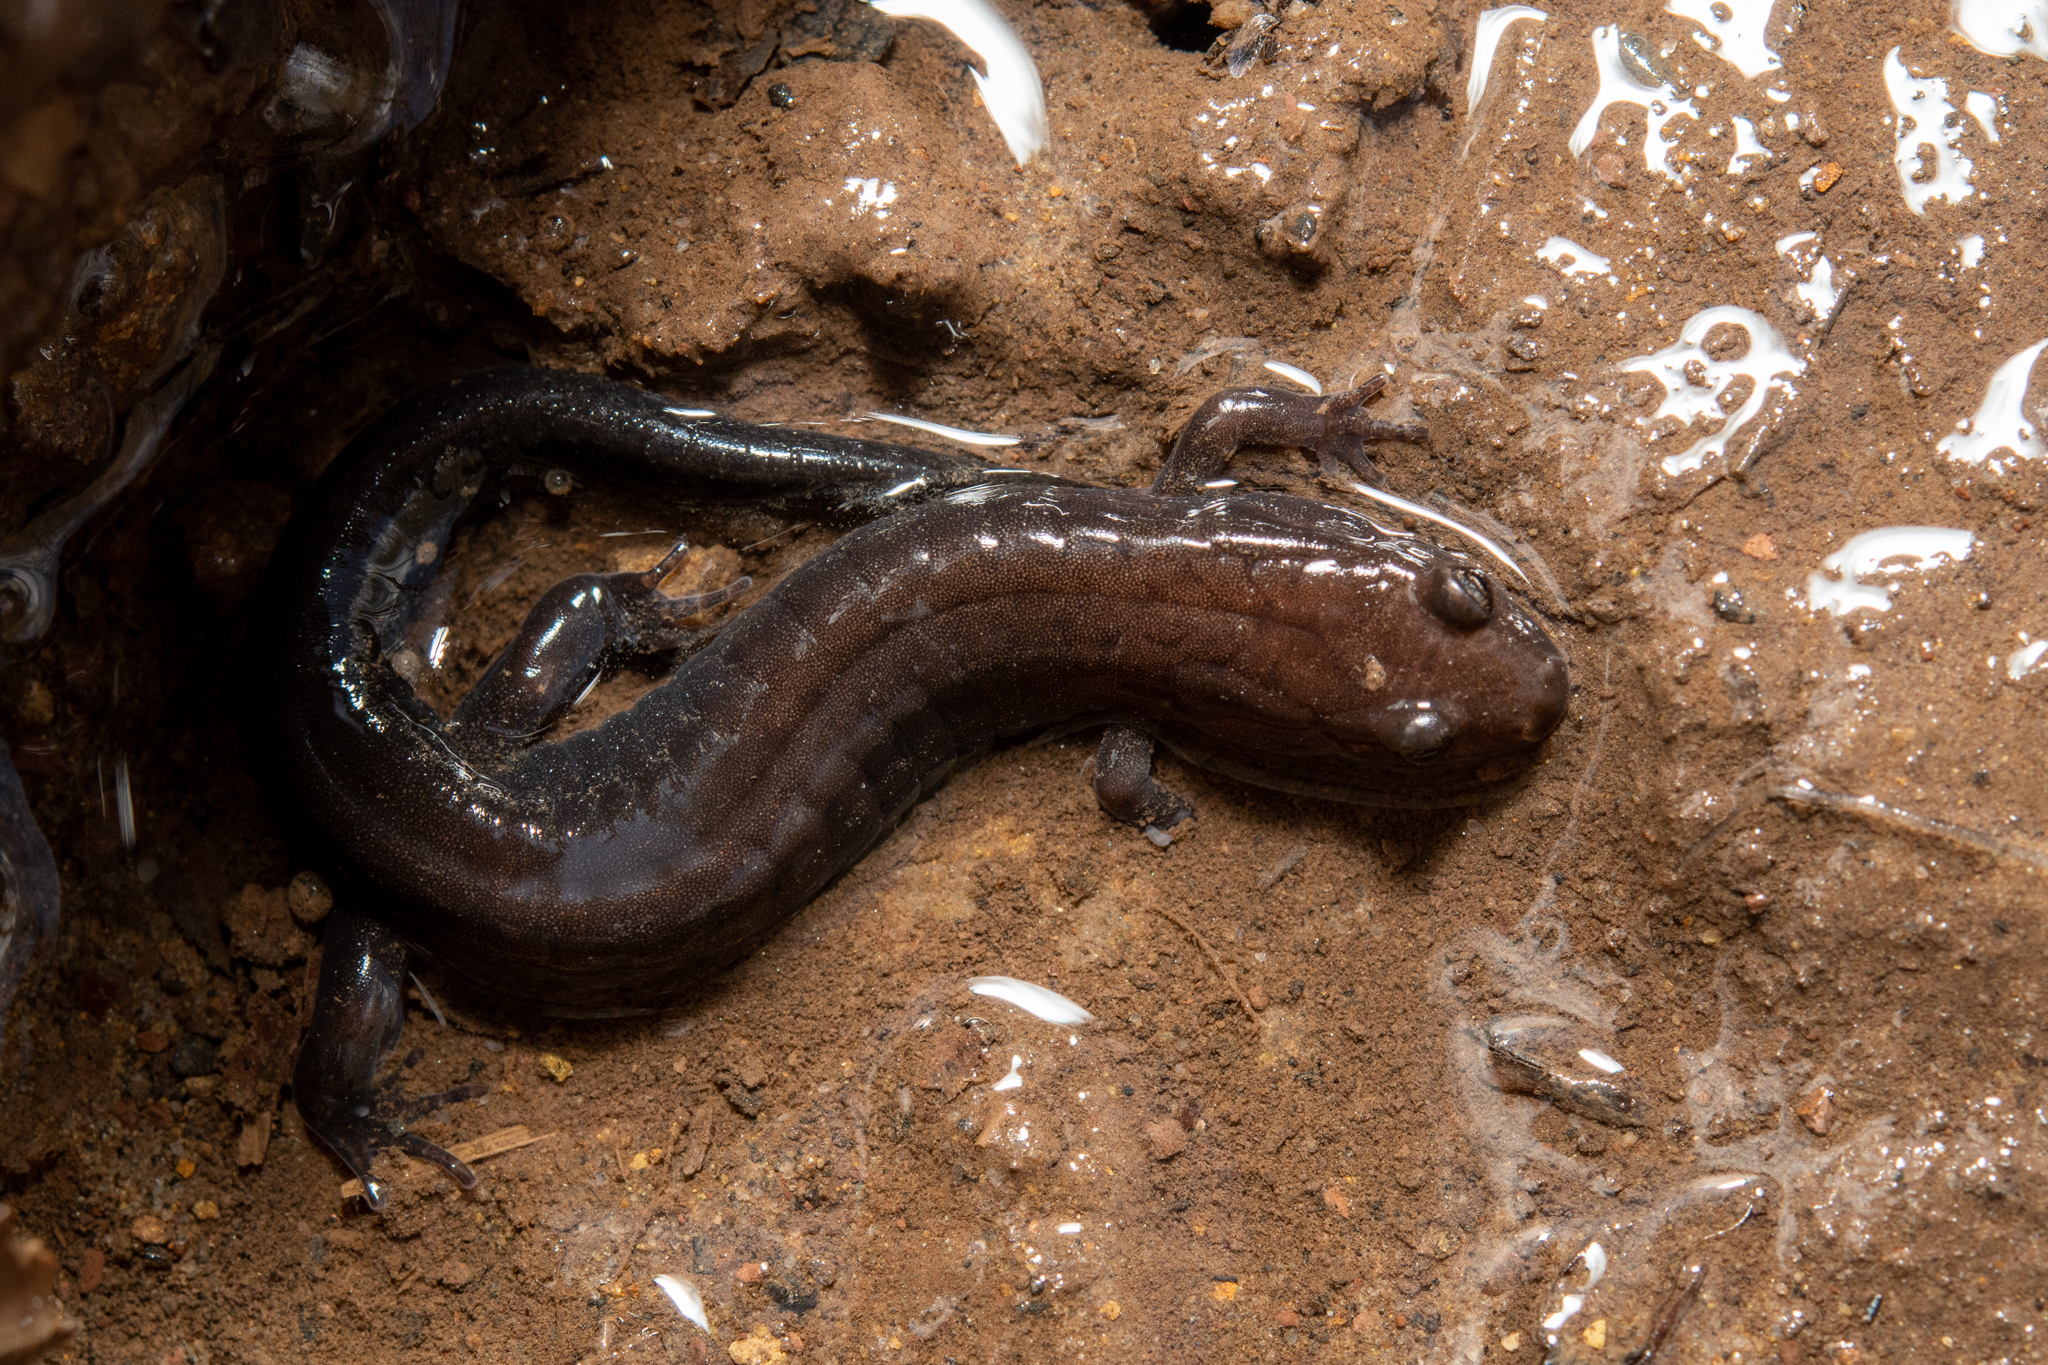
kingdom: Animalia
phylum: Chordata
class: Amphibia
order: Caudata
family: Plethodontidae
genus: Desmognathus
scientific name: Desmognathus ochrophaeus
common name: Allegheny mountain dusky salamander
